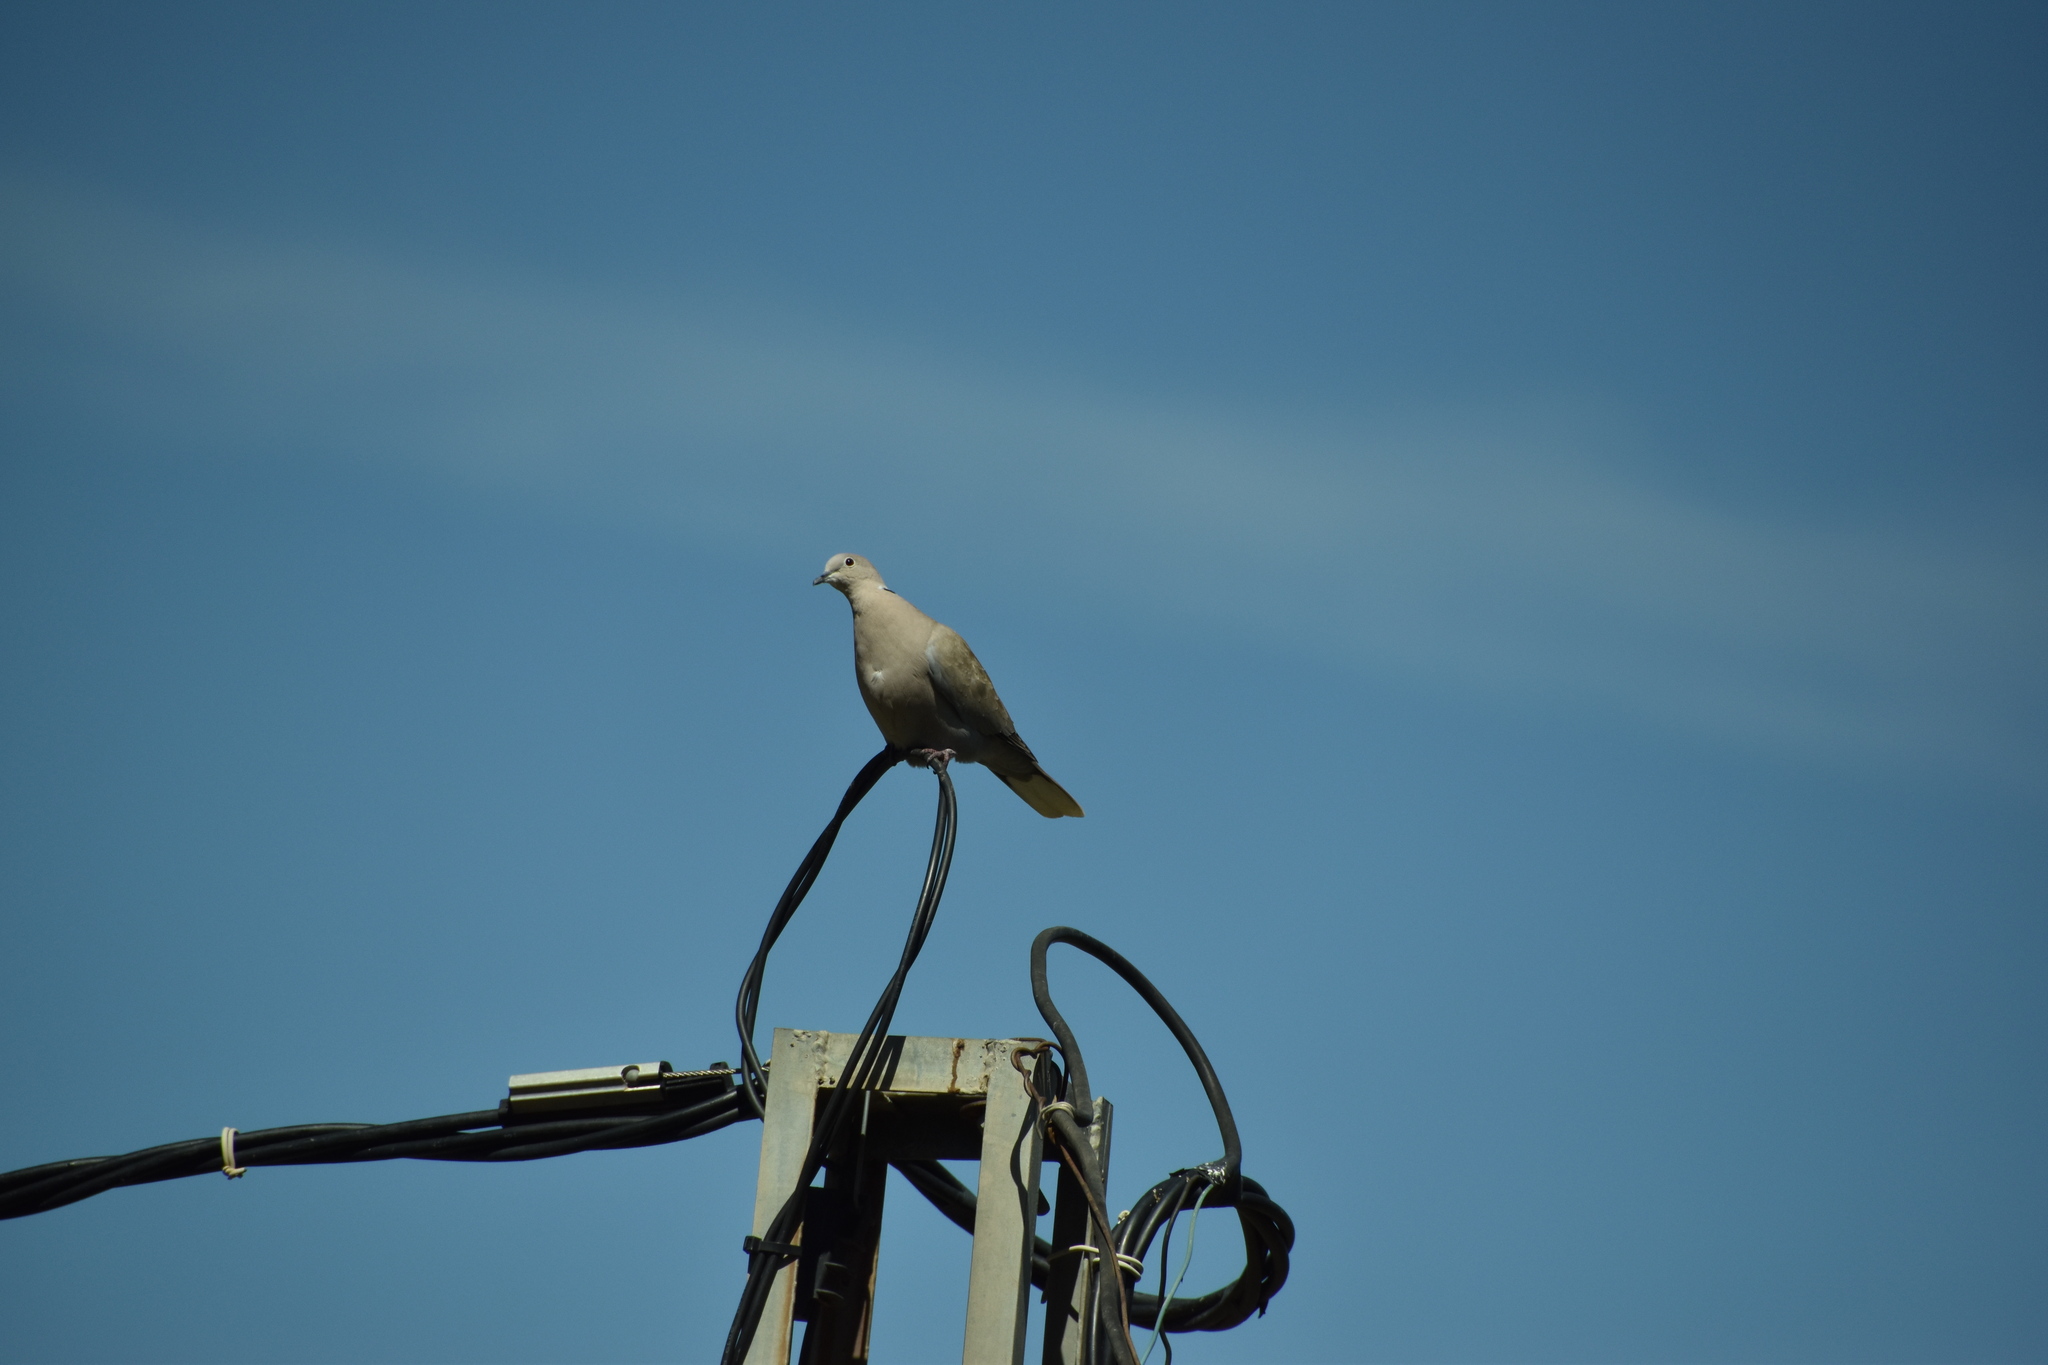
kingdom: Animalia
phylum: Chordata
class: Aves
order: Columbiformes
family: Columbidae
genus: Streptopelia
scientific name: Streptopelia decaocto
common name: Eurasian collared dove
